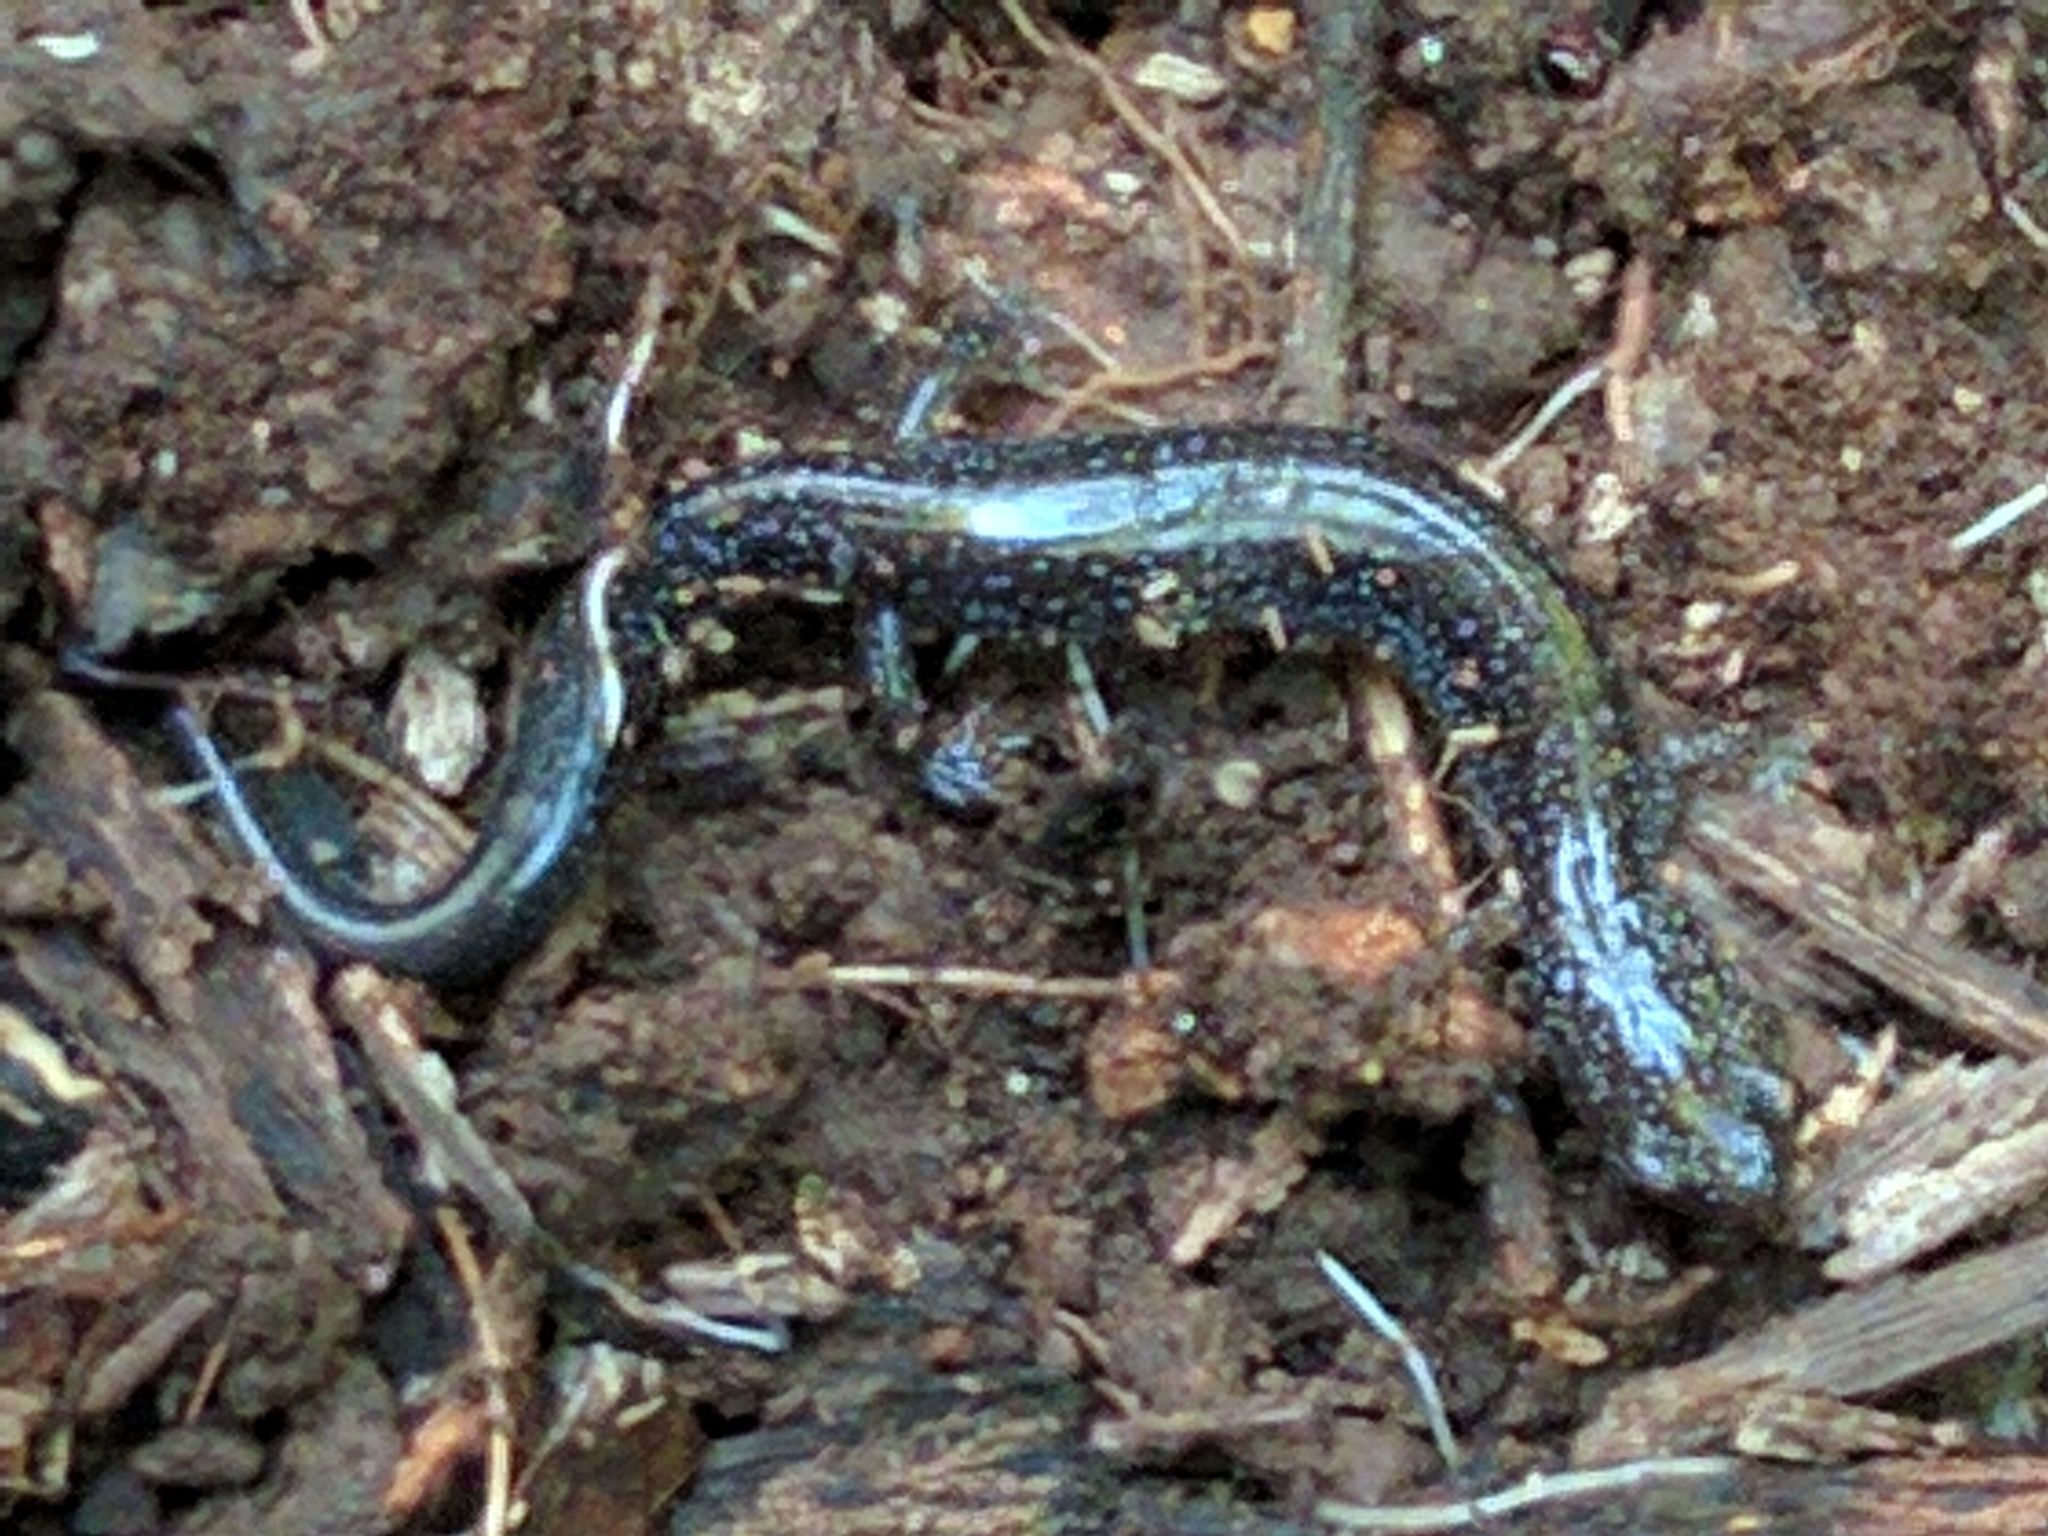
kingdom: Animalia
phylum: Chordata
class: Amphibia
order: Caudata
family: Plethodontidae
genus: Plethodon
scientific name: Plethodon cinereus
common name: Redback salamander
